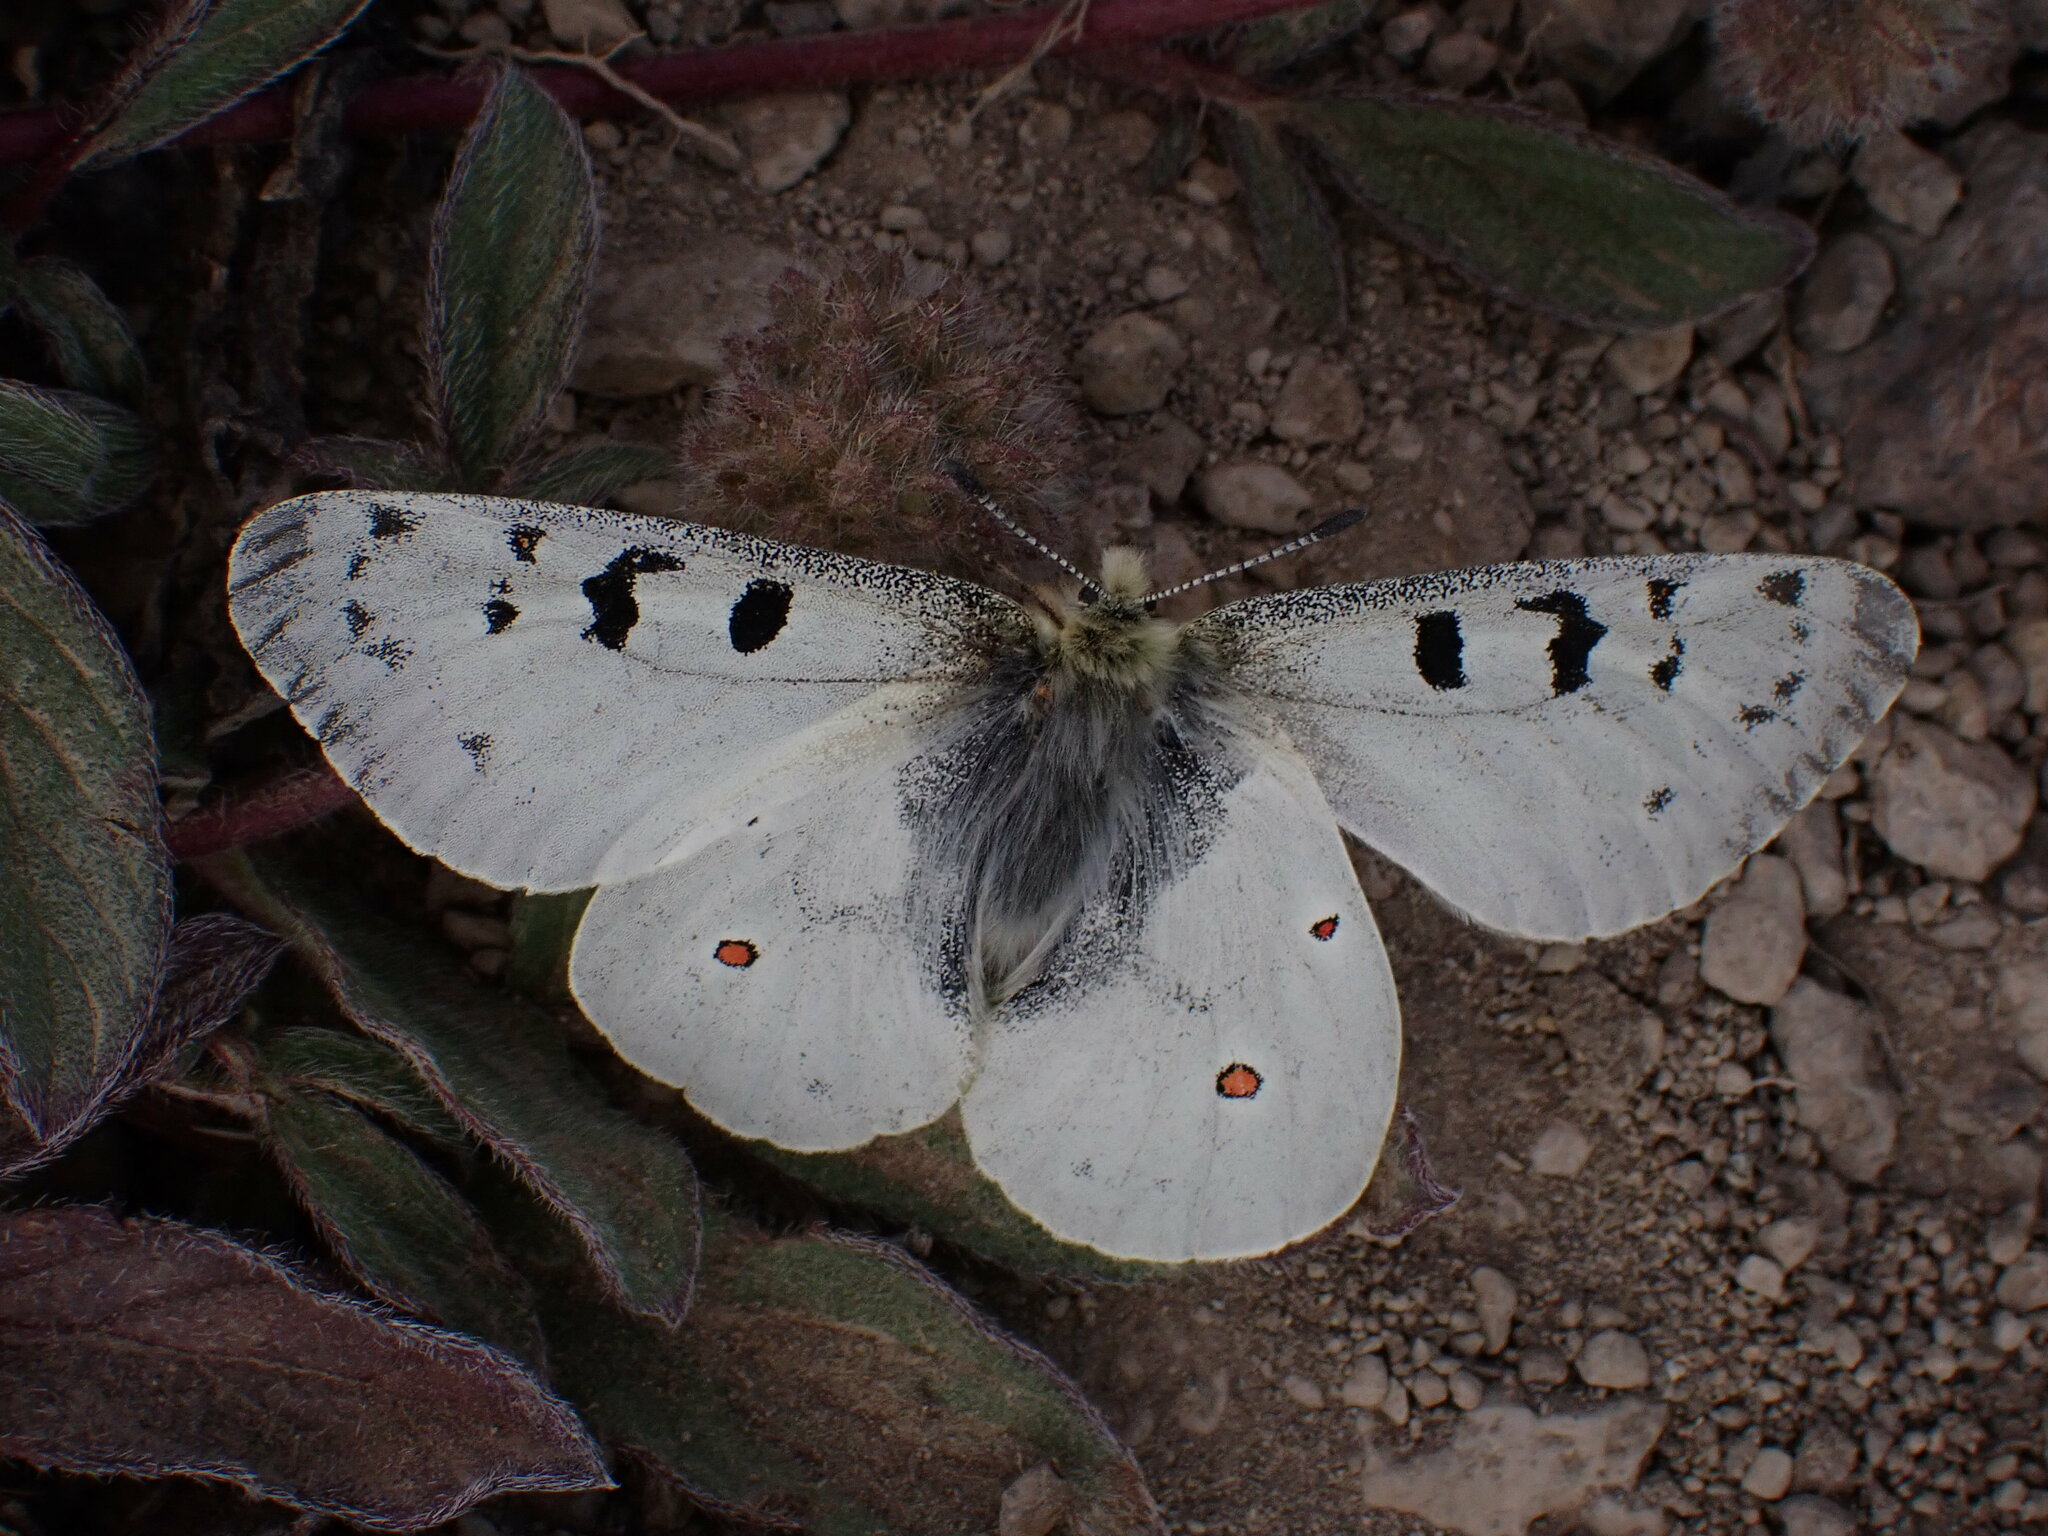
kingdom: Animalia
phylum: Arthropoda
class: Insecta
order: Lepidoptera
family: Papilionidae
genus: Parnassius
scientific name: Parnassius smintheus
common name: Mountain parnassian
